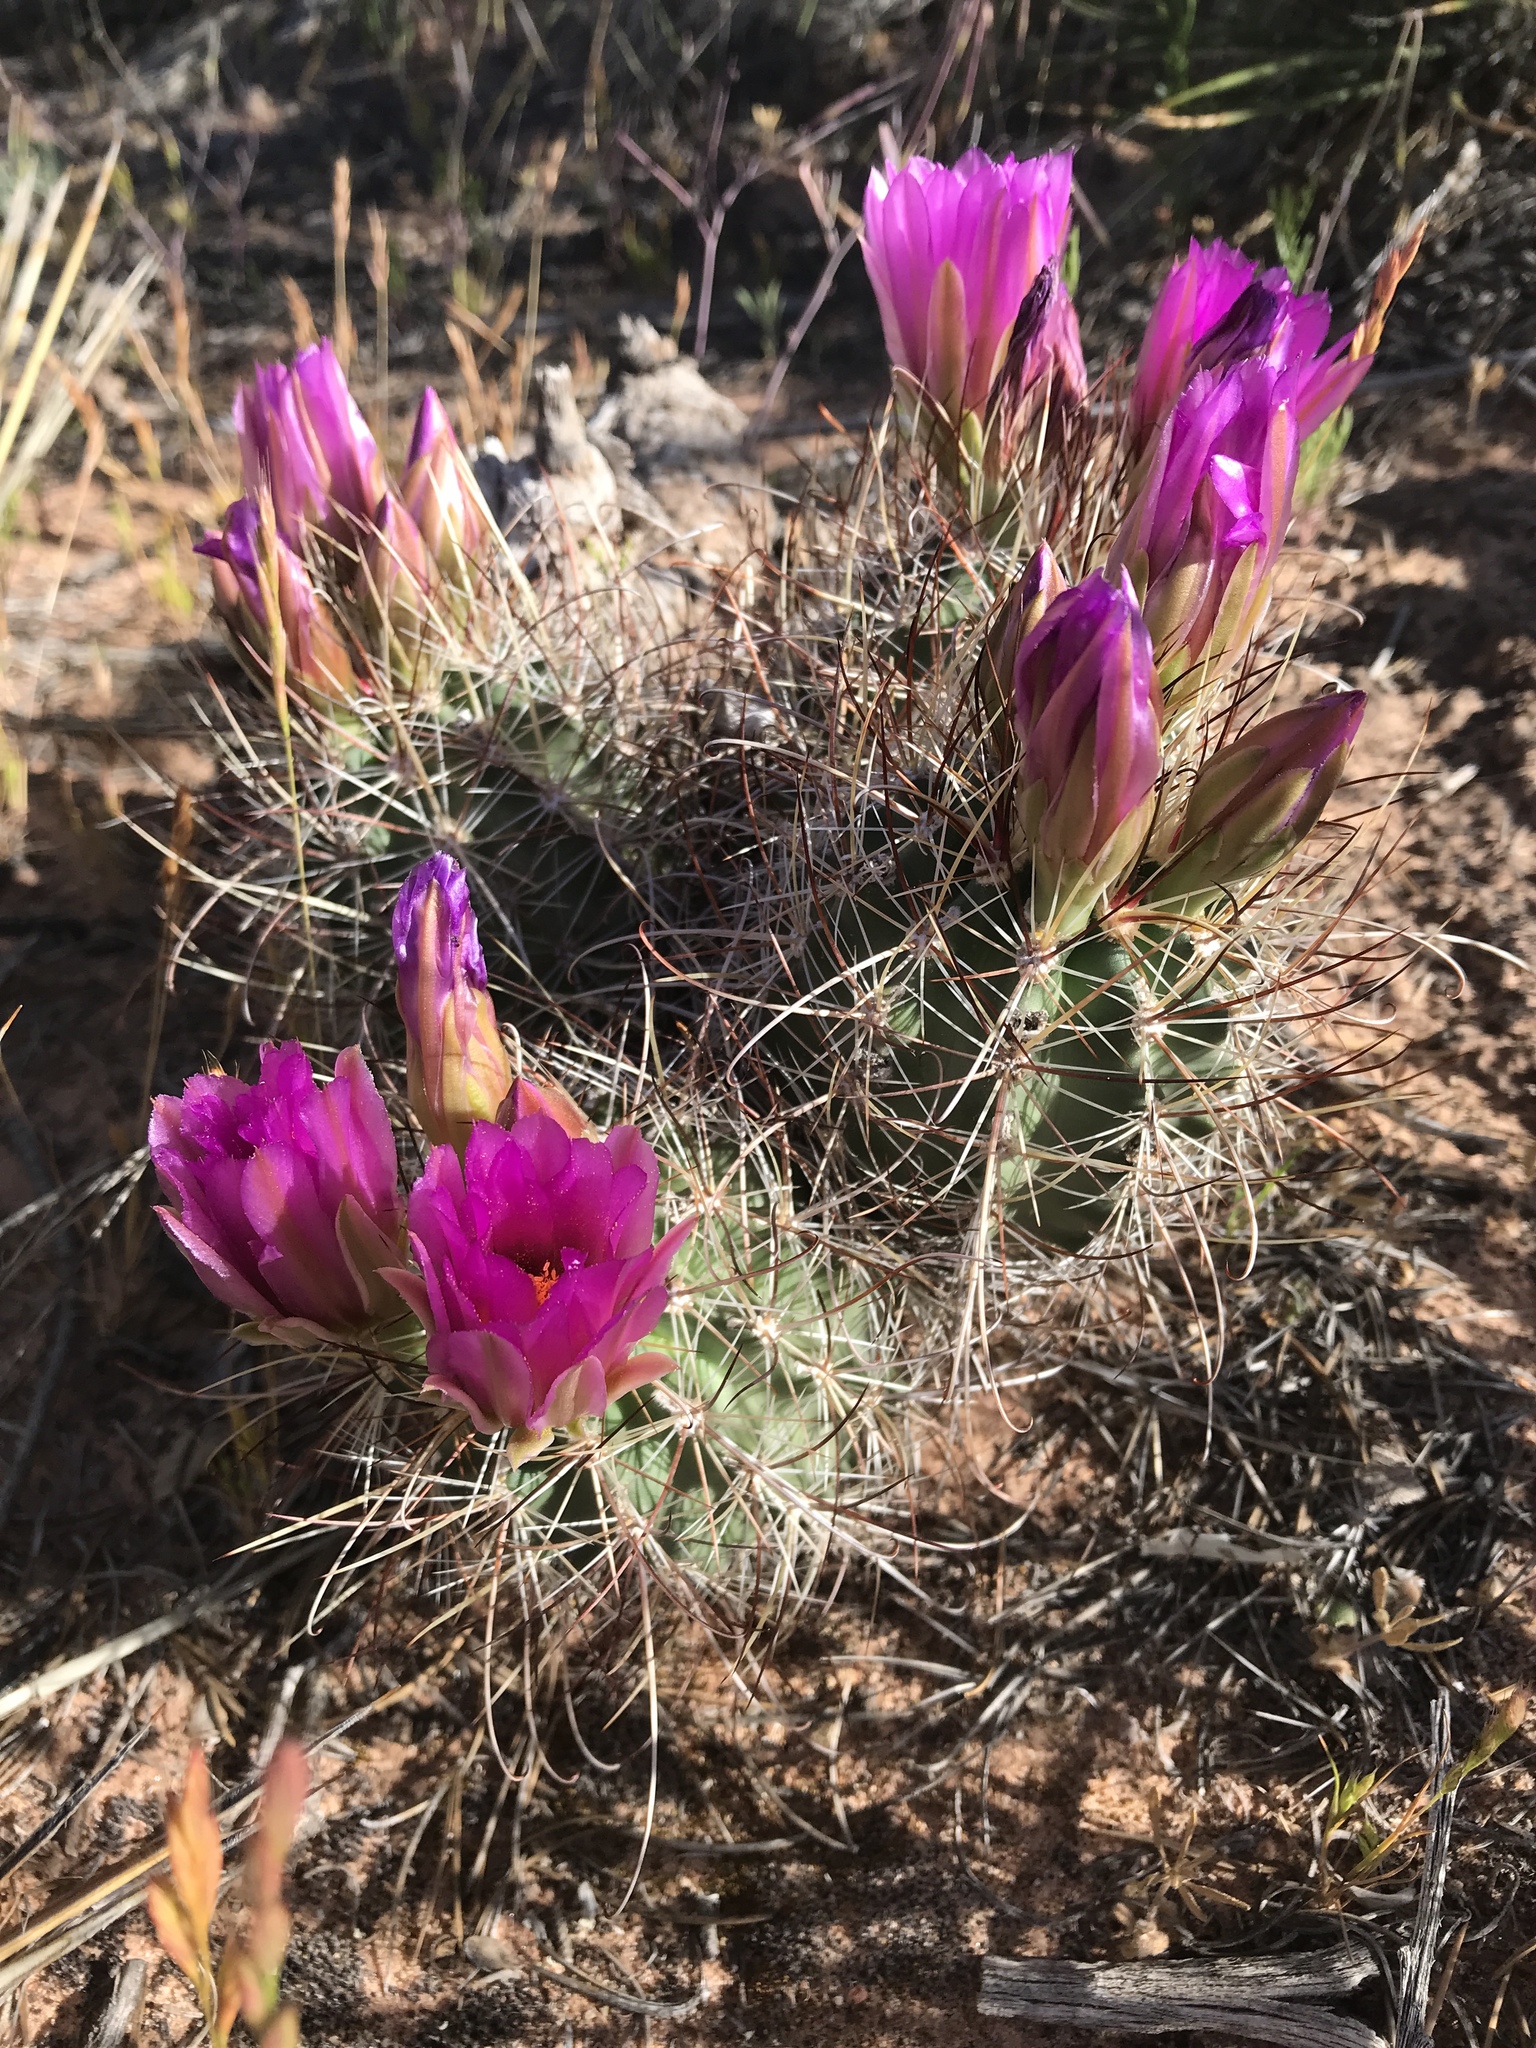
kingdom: Plantae
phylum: Tracheophyta
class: Magnoliopsida
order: Caryophyllales
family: Cactaceae
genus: Sclerocactus
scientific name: Sclerocactus parviflorus
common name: Small-flower fishhook cactus
